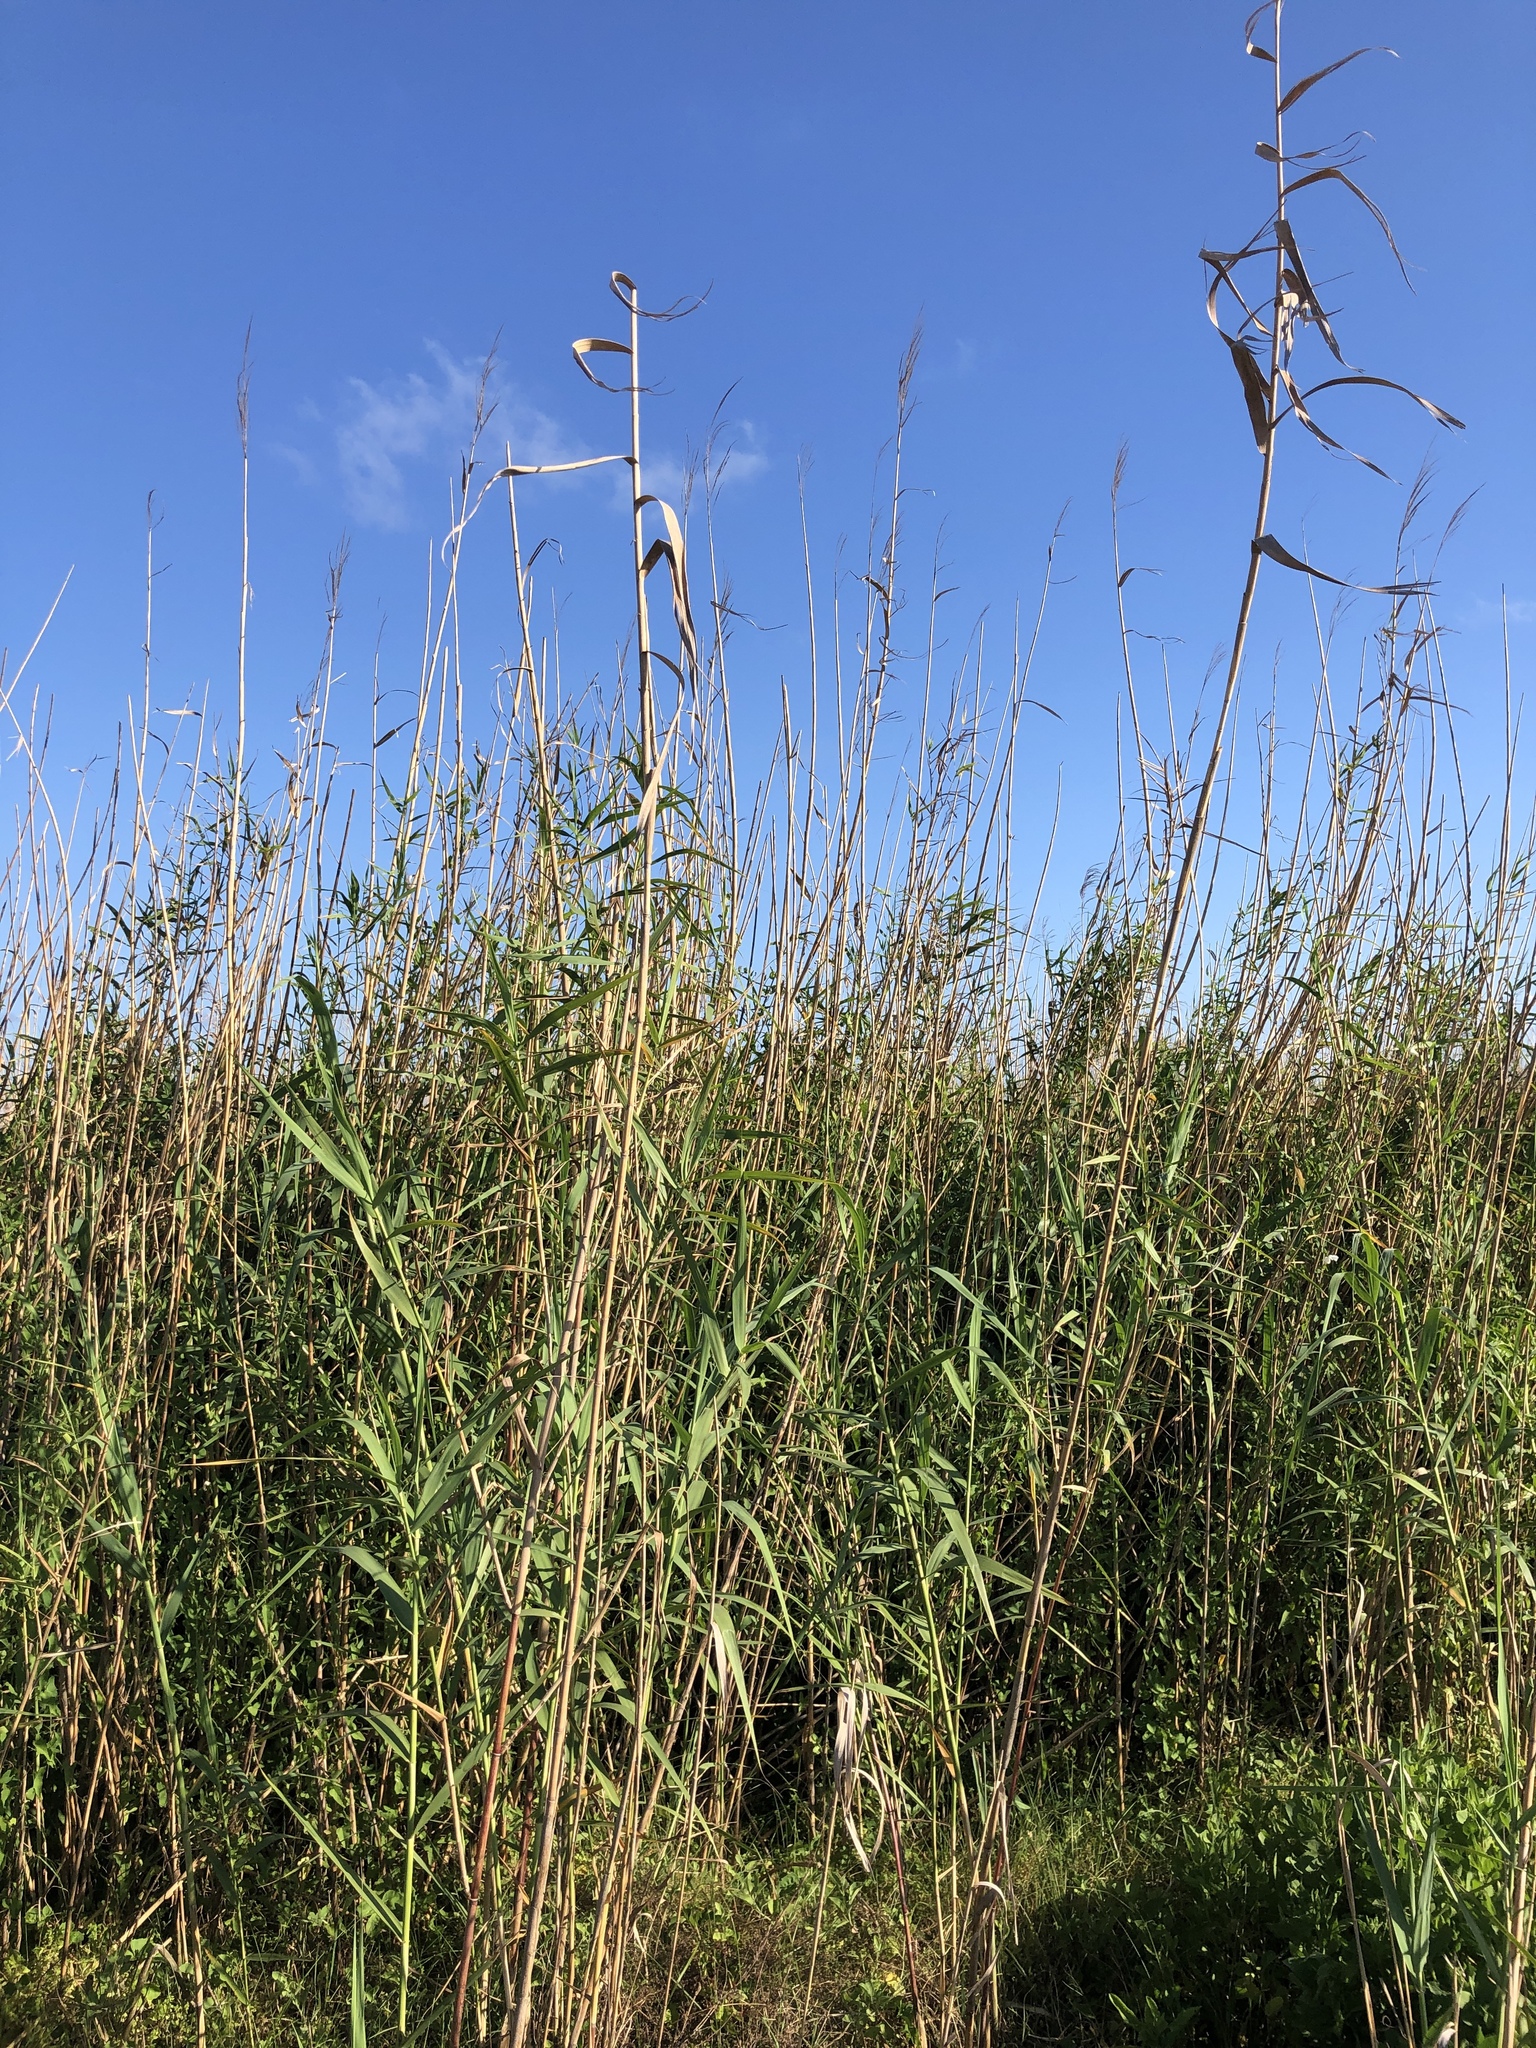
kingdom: Plantae
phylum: Tracheophyta
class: Liliopsida
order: Poales
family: Poaceae
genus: Phragmites
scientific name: Phragmites australis
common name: Common reed
